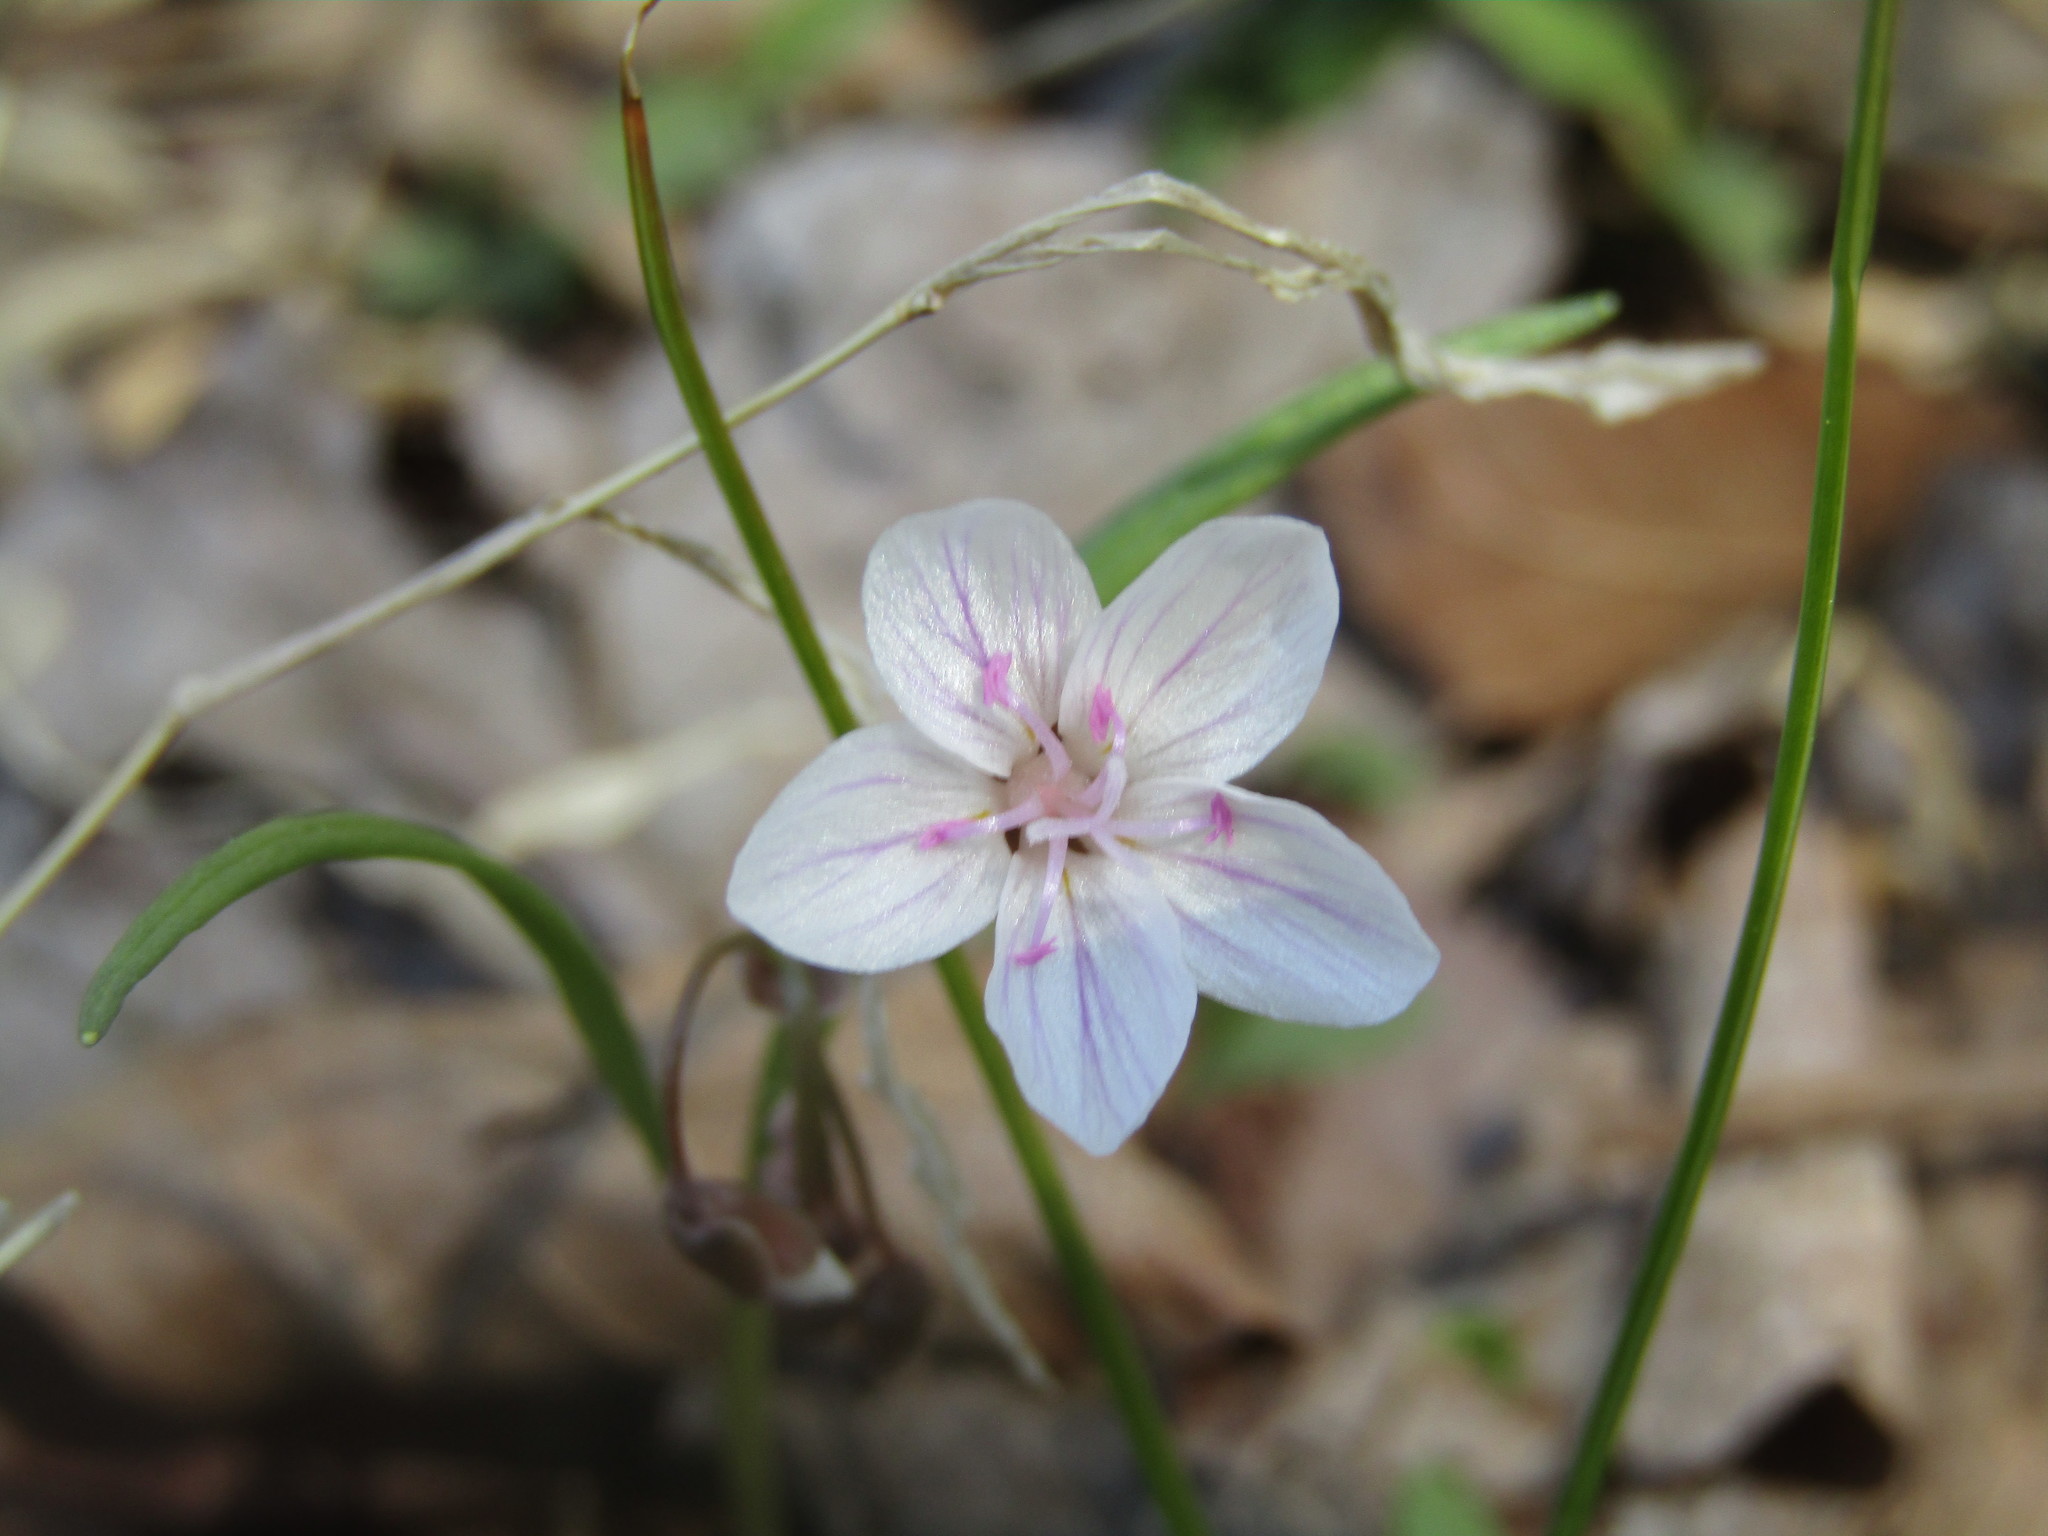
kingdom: Plantae
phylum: Tracheophyta
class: Magnoliopsida
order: Caryophyllales
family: Montiaceae
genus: Claytonia
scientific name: Claytonia virginica
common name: Virginia springbeauty
